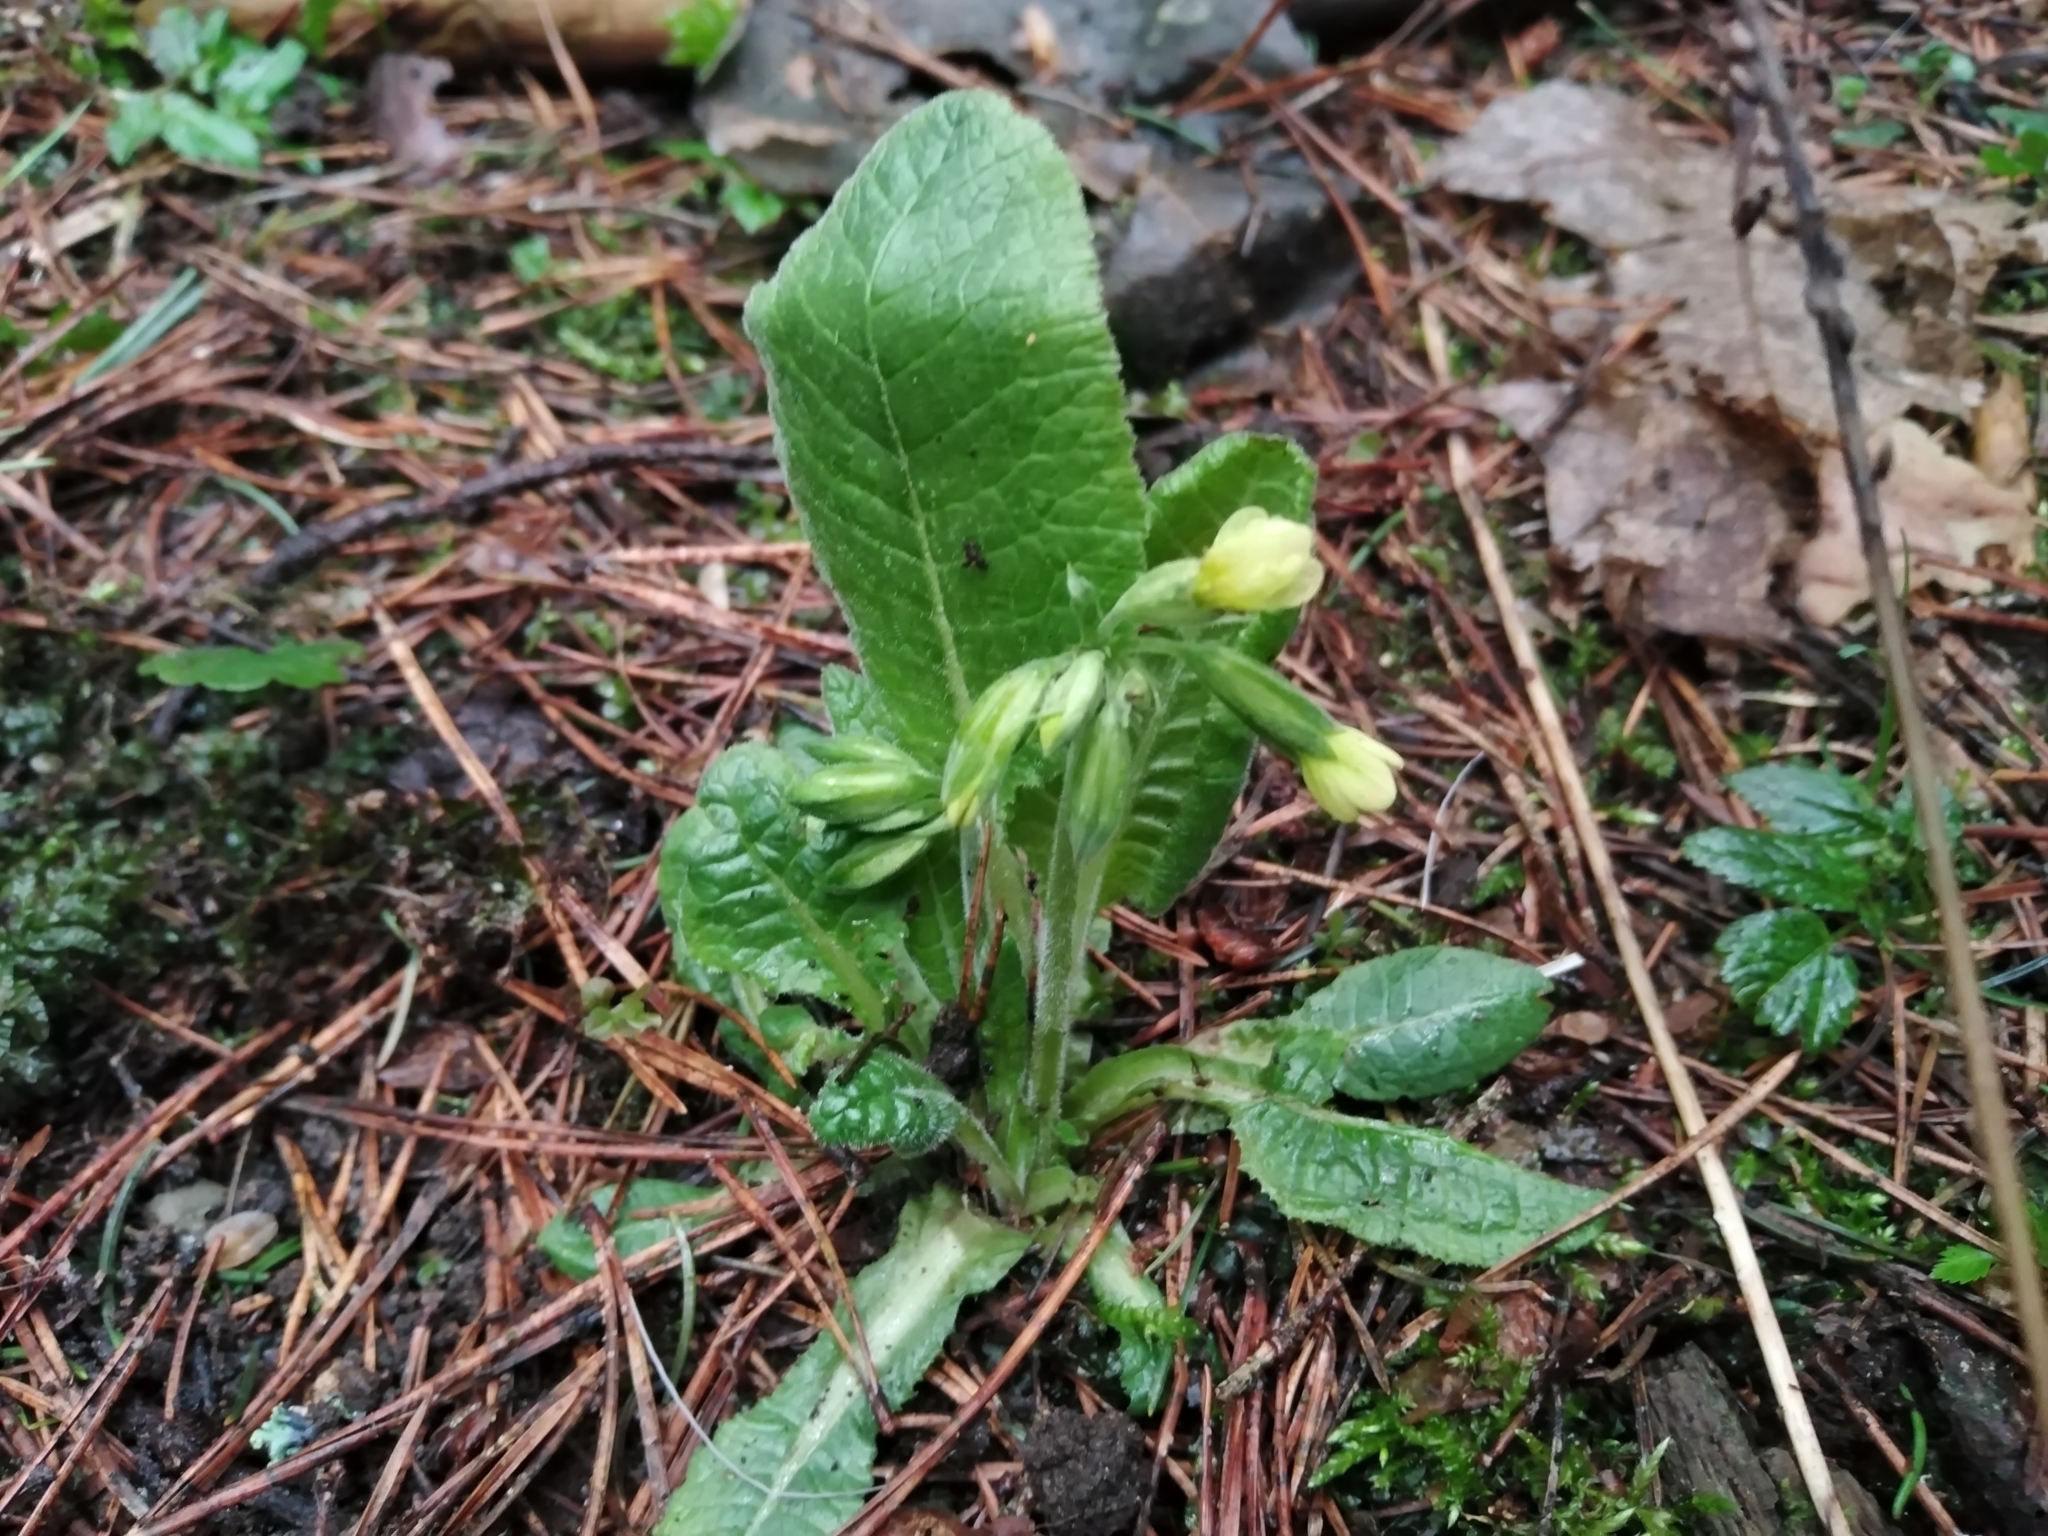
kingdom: Plantae
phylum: Tracheophyta
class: Magnoliopsida
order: Ericales
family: Primulaceae
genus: Primula
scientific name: Primula elatior
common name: Oxlip
